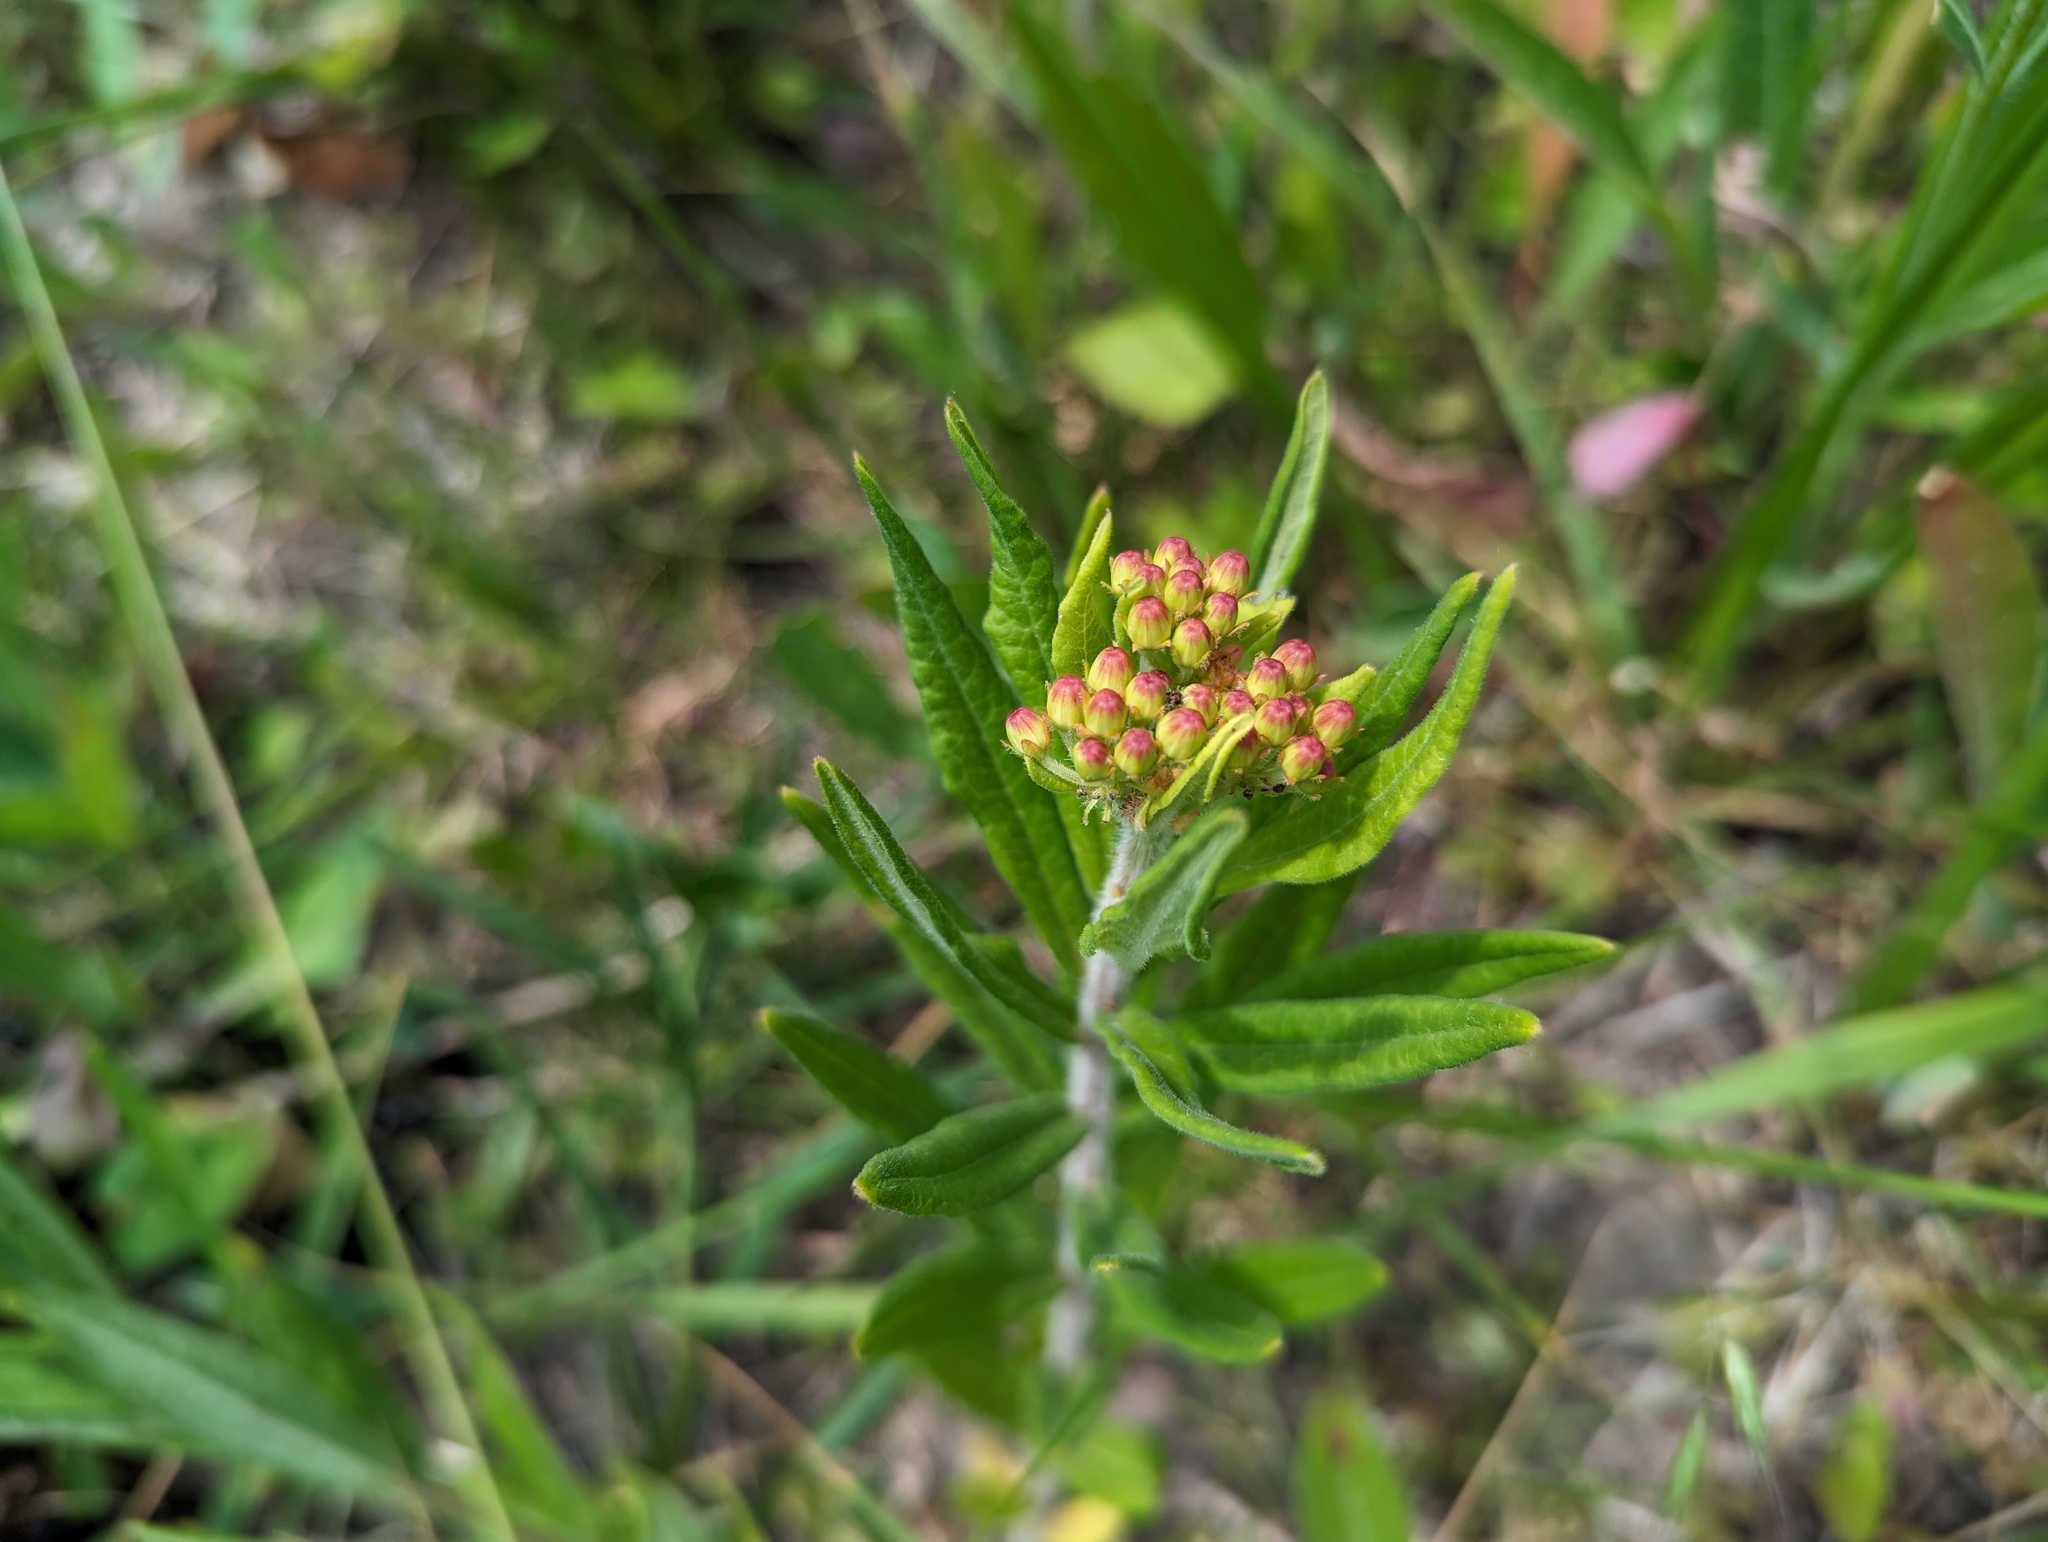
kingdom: Plantae
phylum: Tracheophyta
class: Magnoliopsida
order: Gentianales
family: Apocynaceae
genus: Asclepias
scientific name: Asclepias tuberosa
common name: Butterfly milkweed
